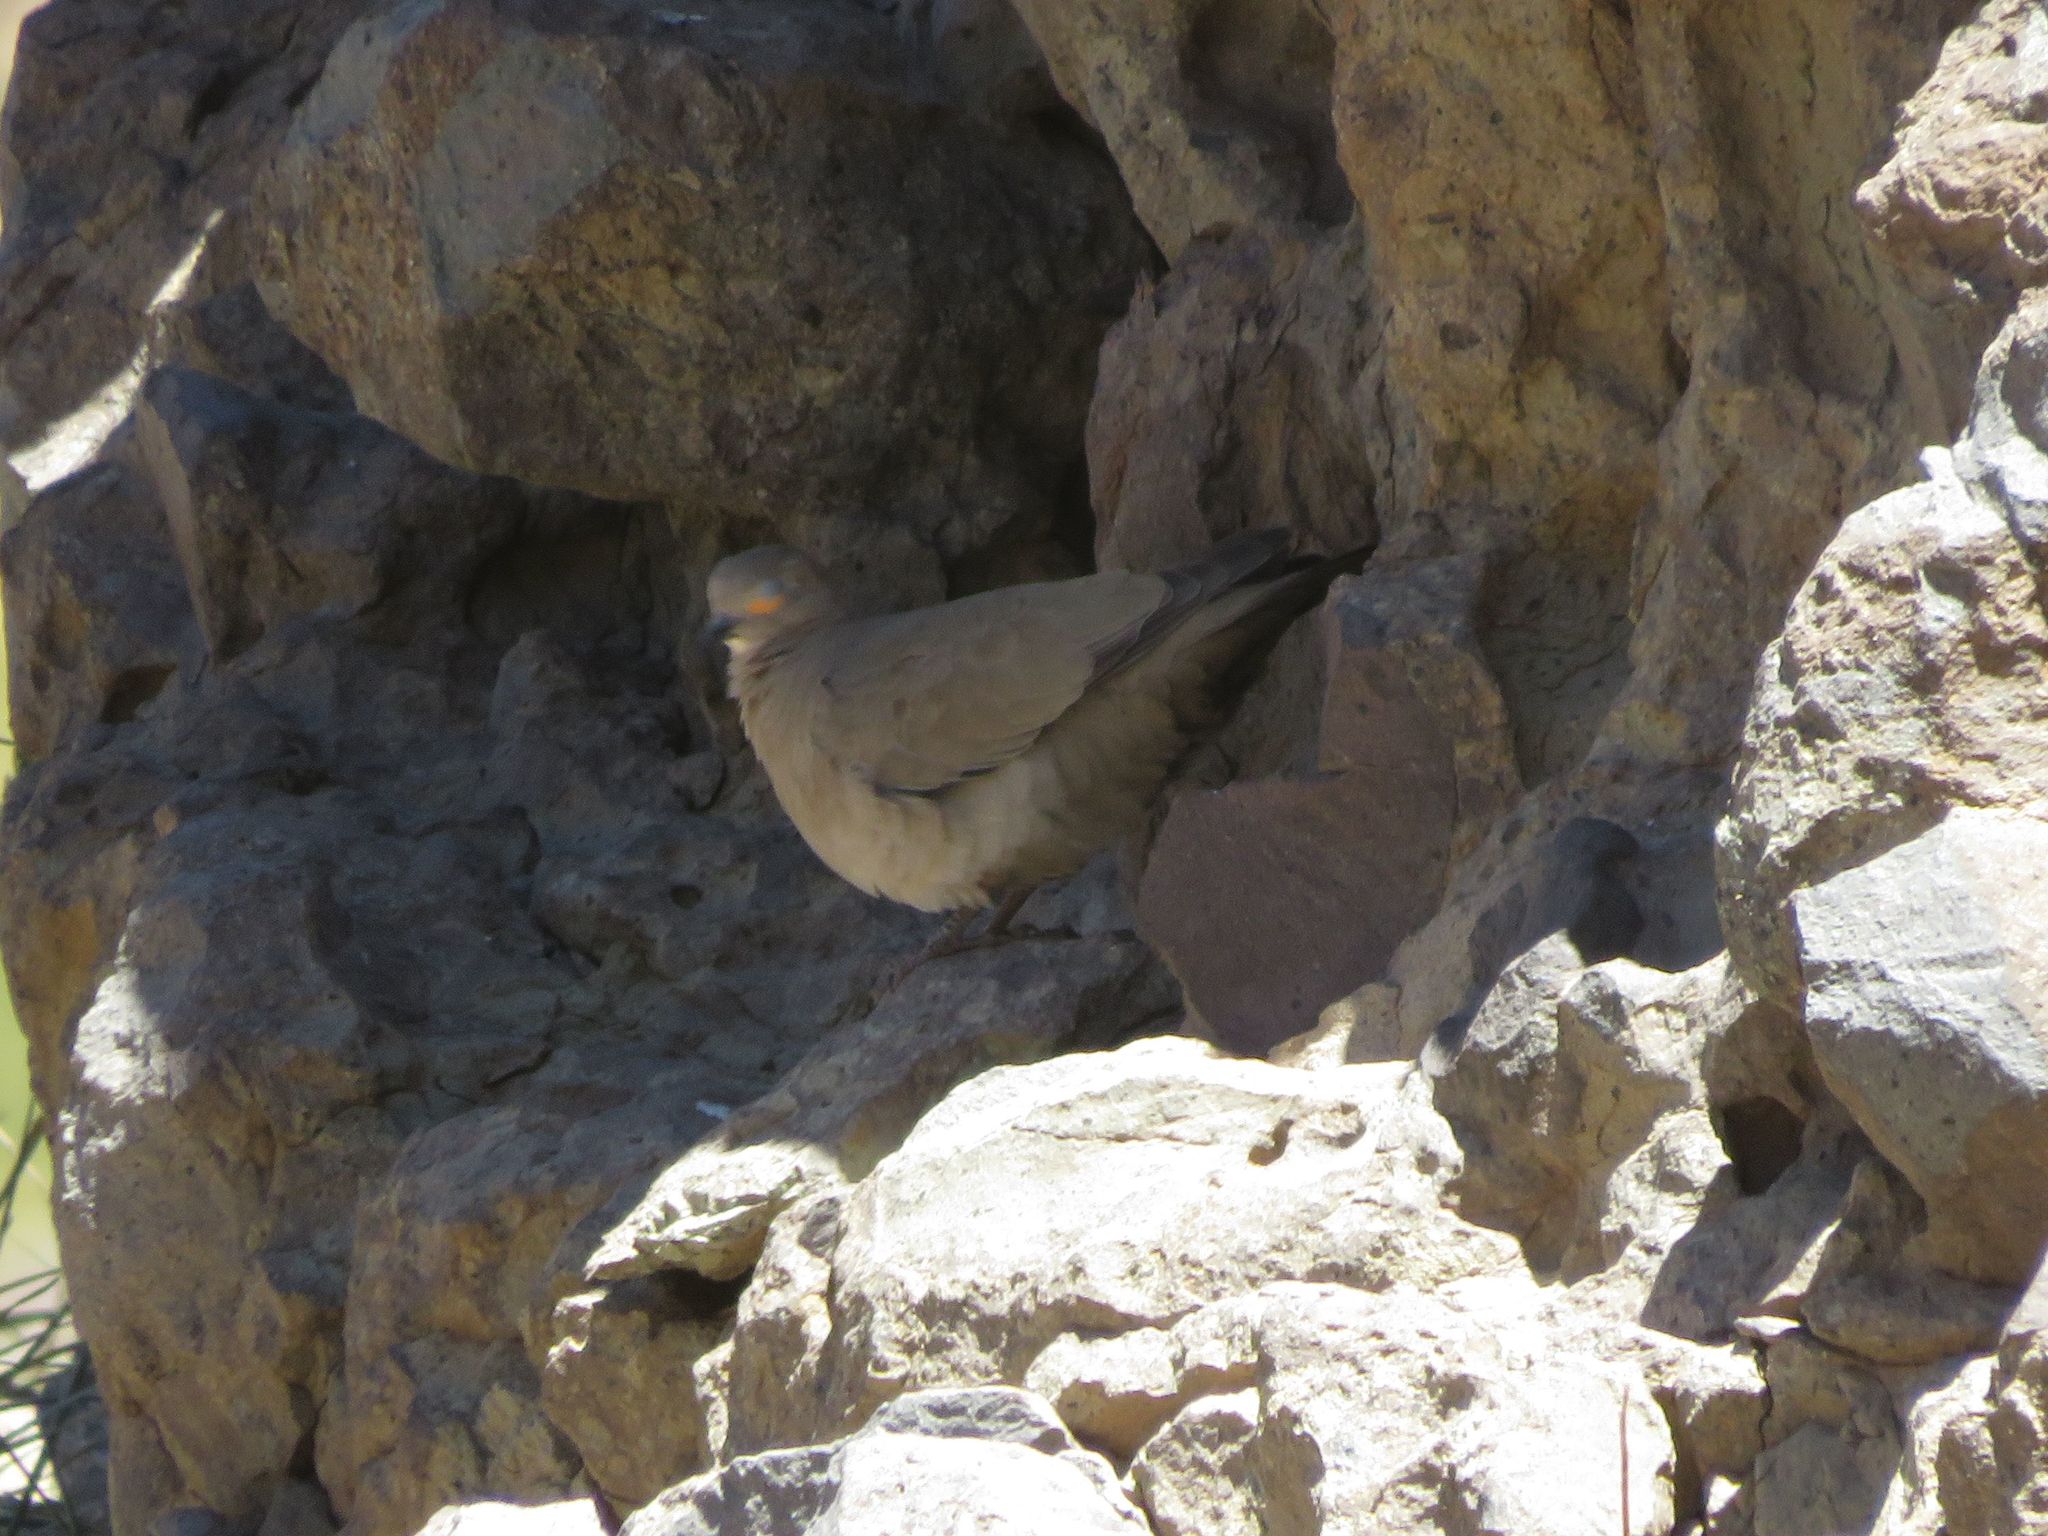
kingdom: Animalia
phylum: Chordata
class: Aves
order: Columbiformes
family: Columbidae
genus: Metriopelia
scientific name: Metriopelia melanoptera
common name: Black-winged ground dove
